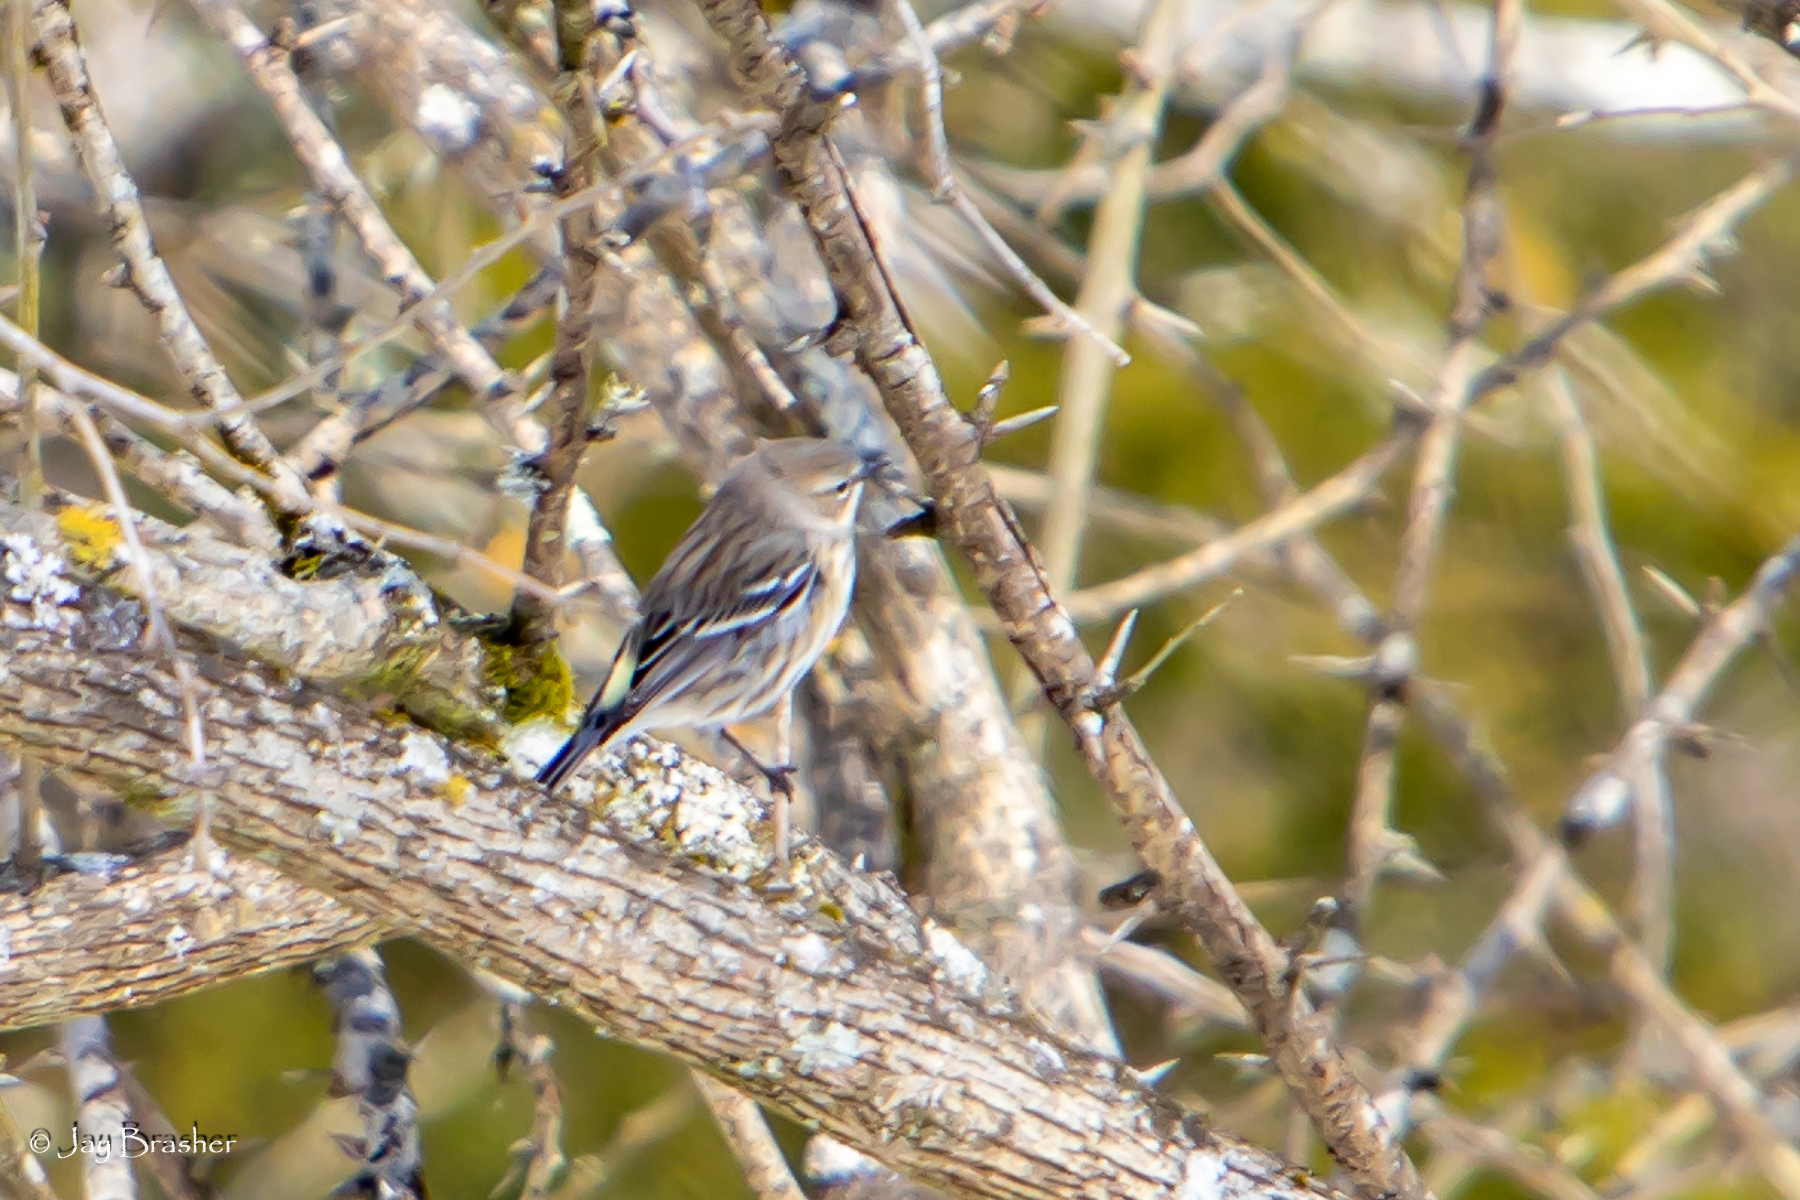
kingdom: Animalia
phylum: Chordata
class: Aves
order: Passeriformes
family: Parulidae
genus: Setophaga
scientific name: Setophaga coronata
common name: Myrtle warbler
